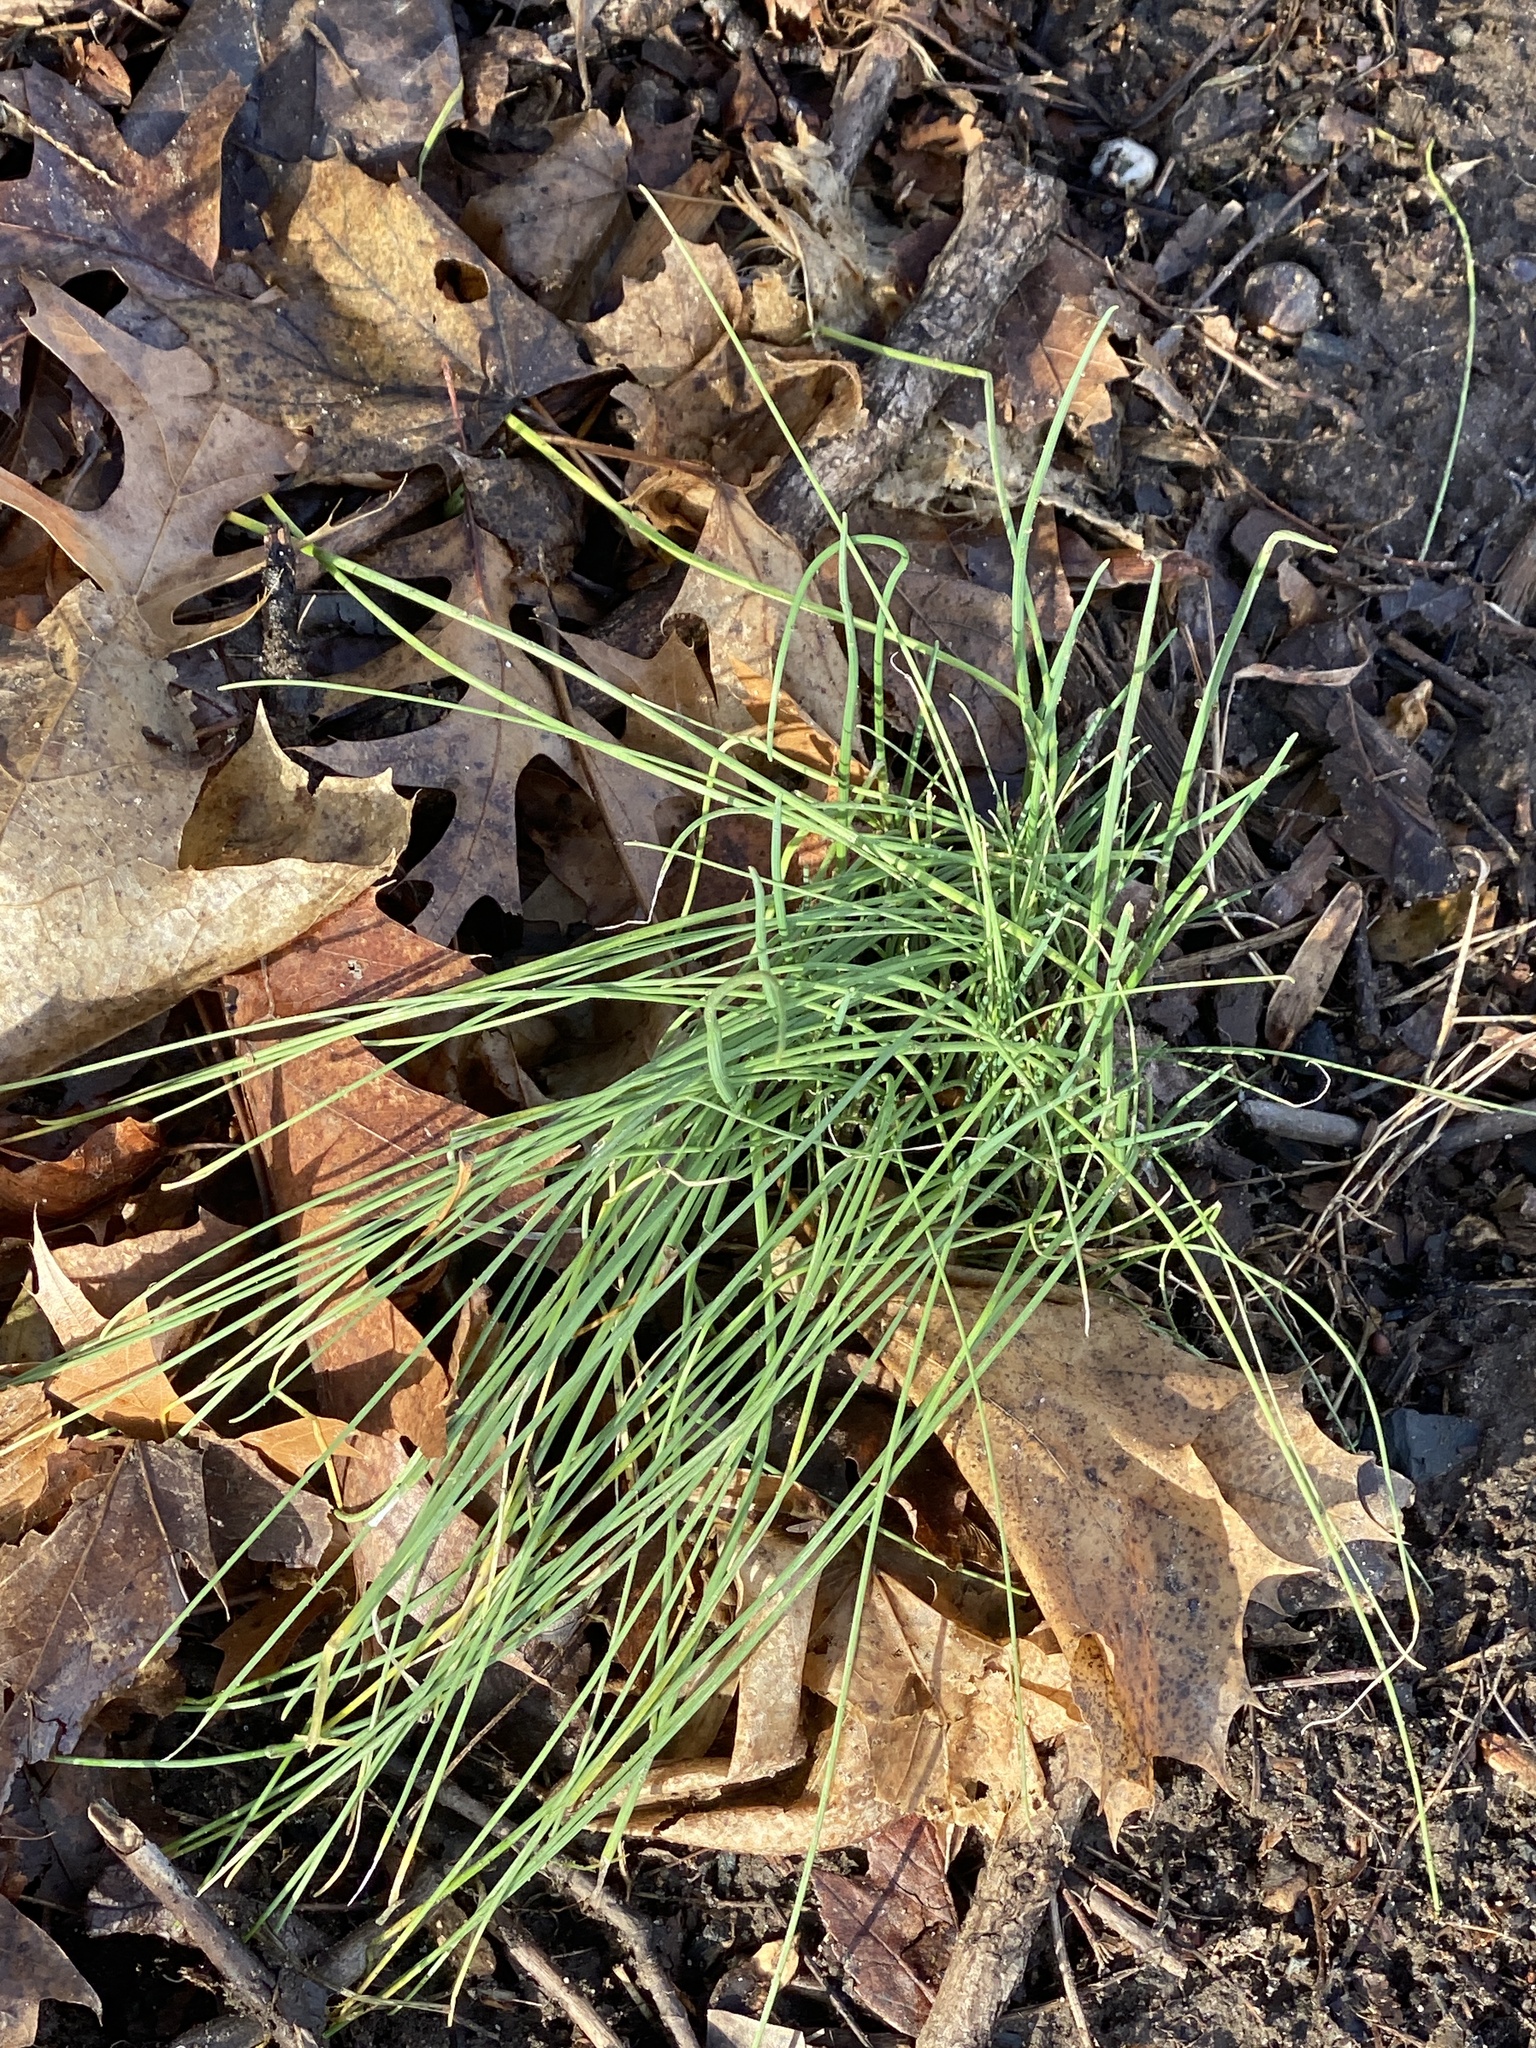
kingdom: Plantae
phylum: Tracheophyta
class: Liliopsida
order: Asparagales
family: Amaryllidaceae
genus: Allium
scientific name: Allium vineale
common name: Crow garlic
